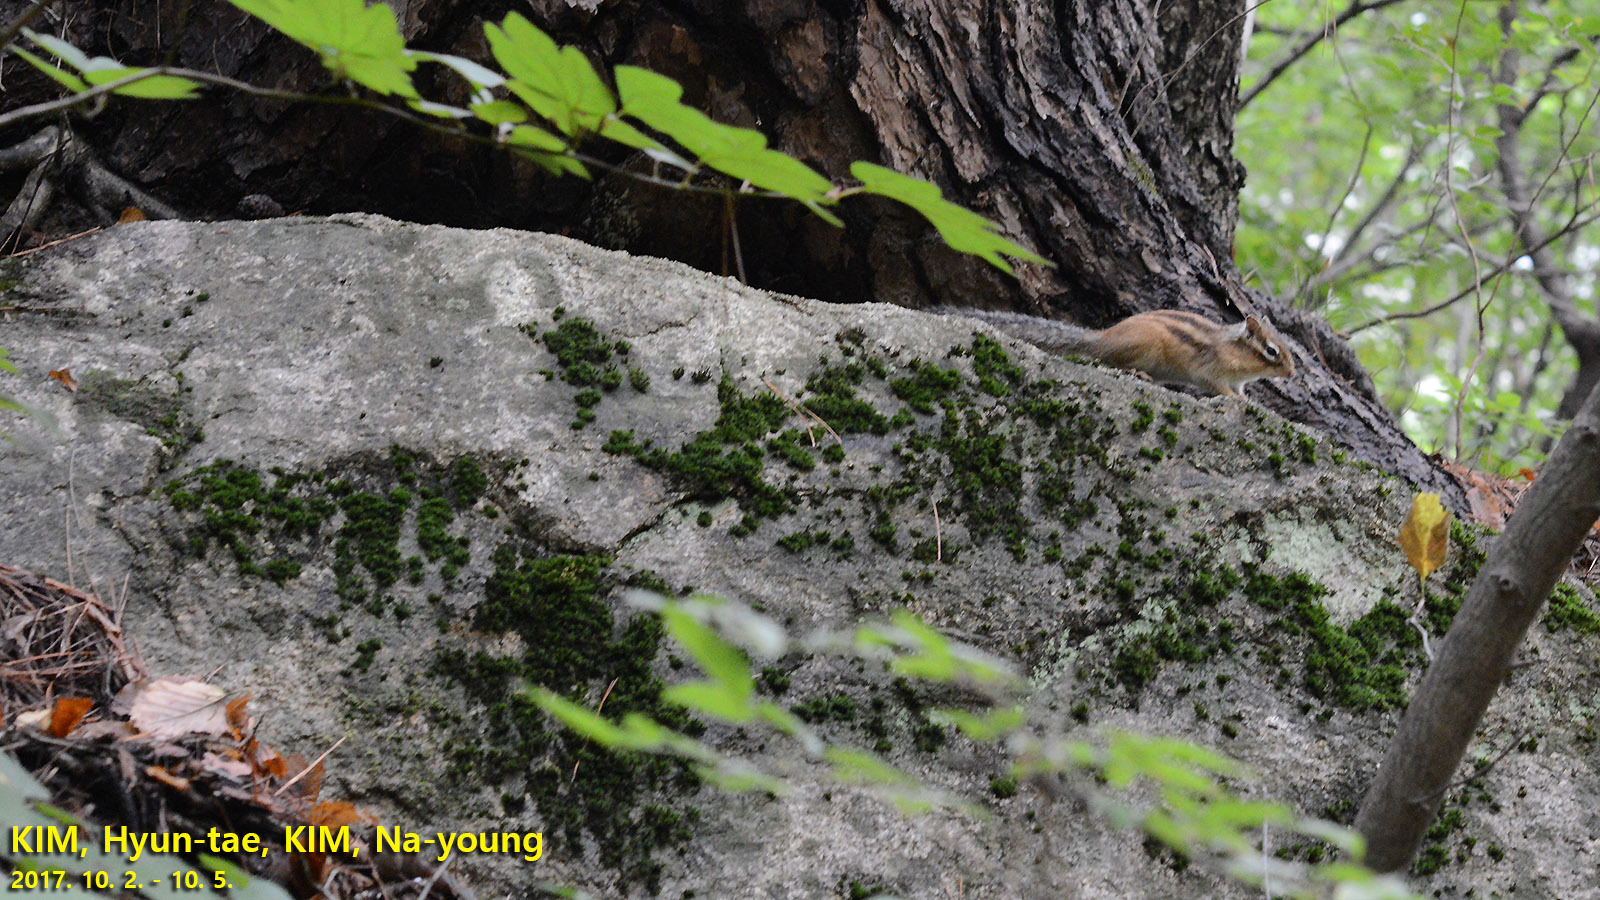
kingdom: Animalia
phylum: Chordata
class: Mammalia
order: Rodentia
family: Sciuridae
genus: Tamias
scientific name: Tamias sibiricus
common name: Siberian chipmunk
